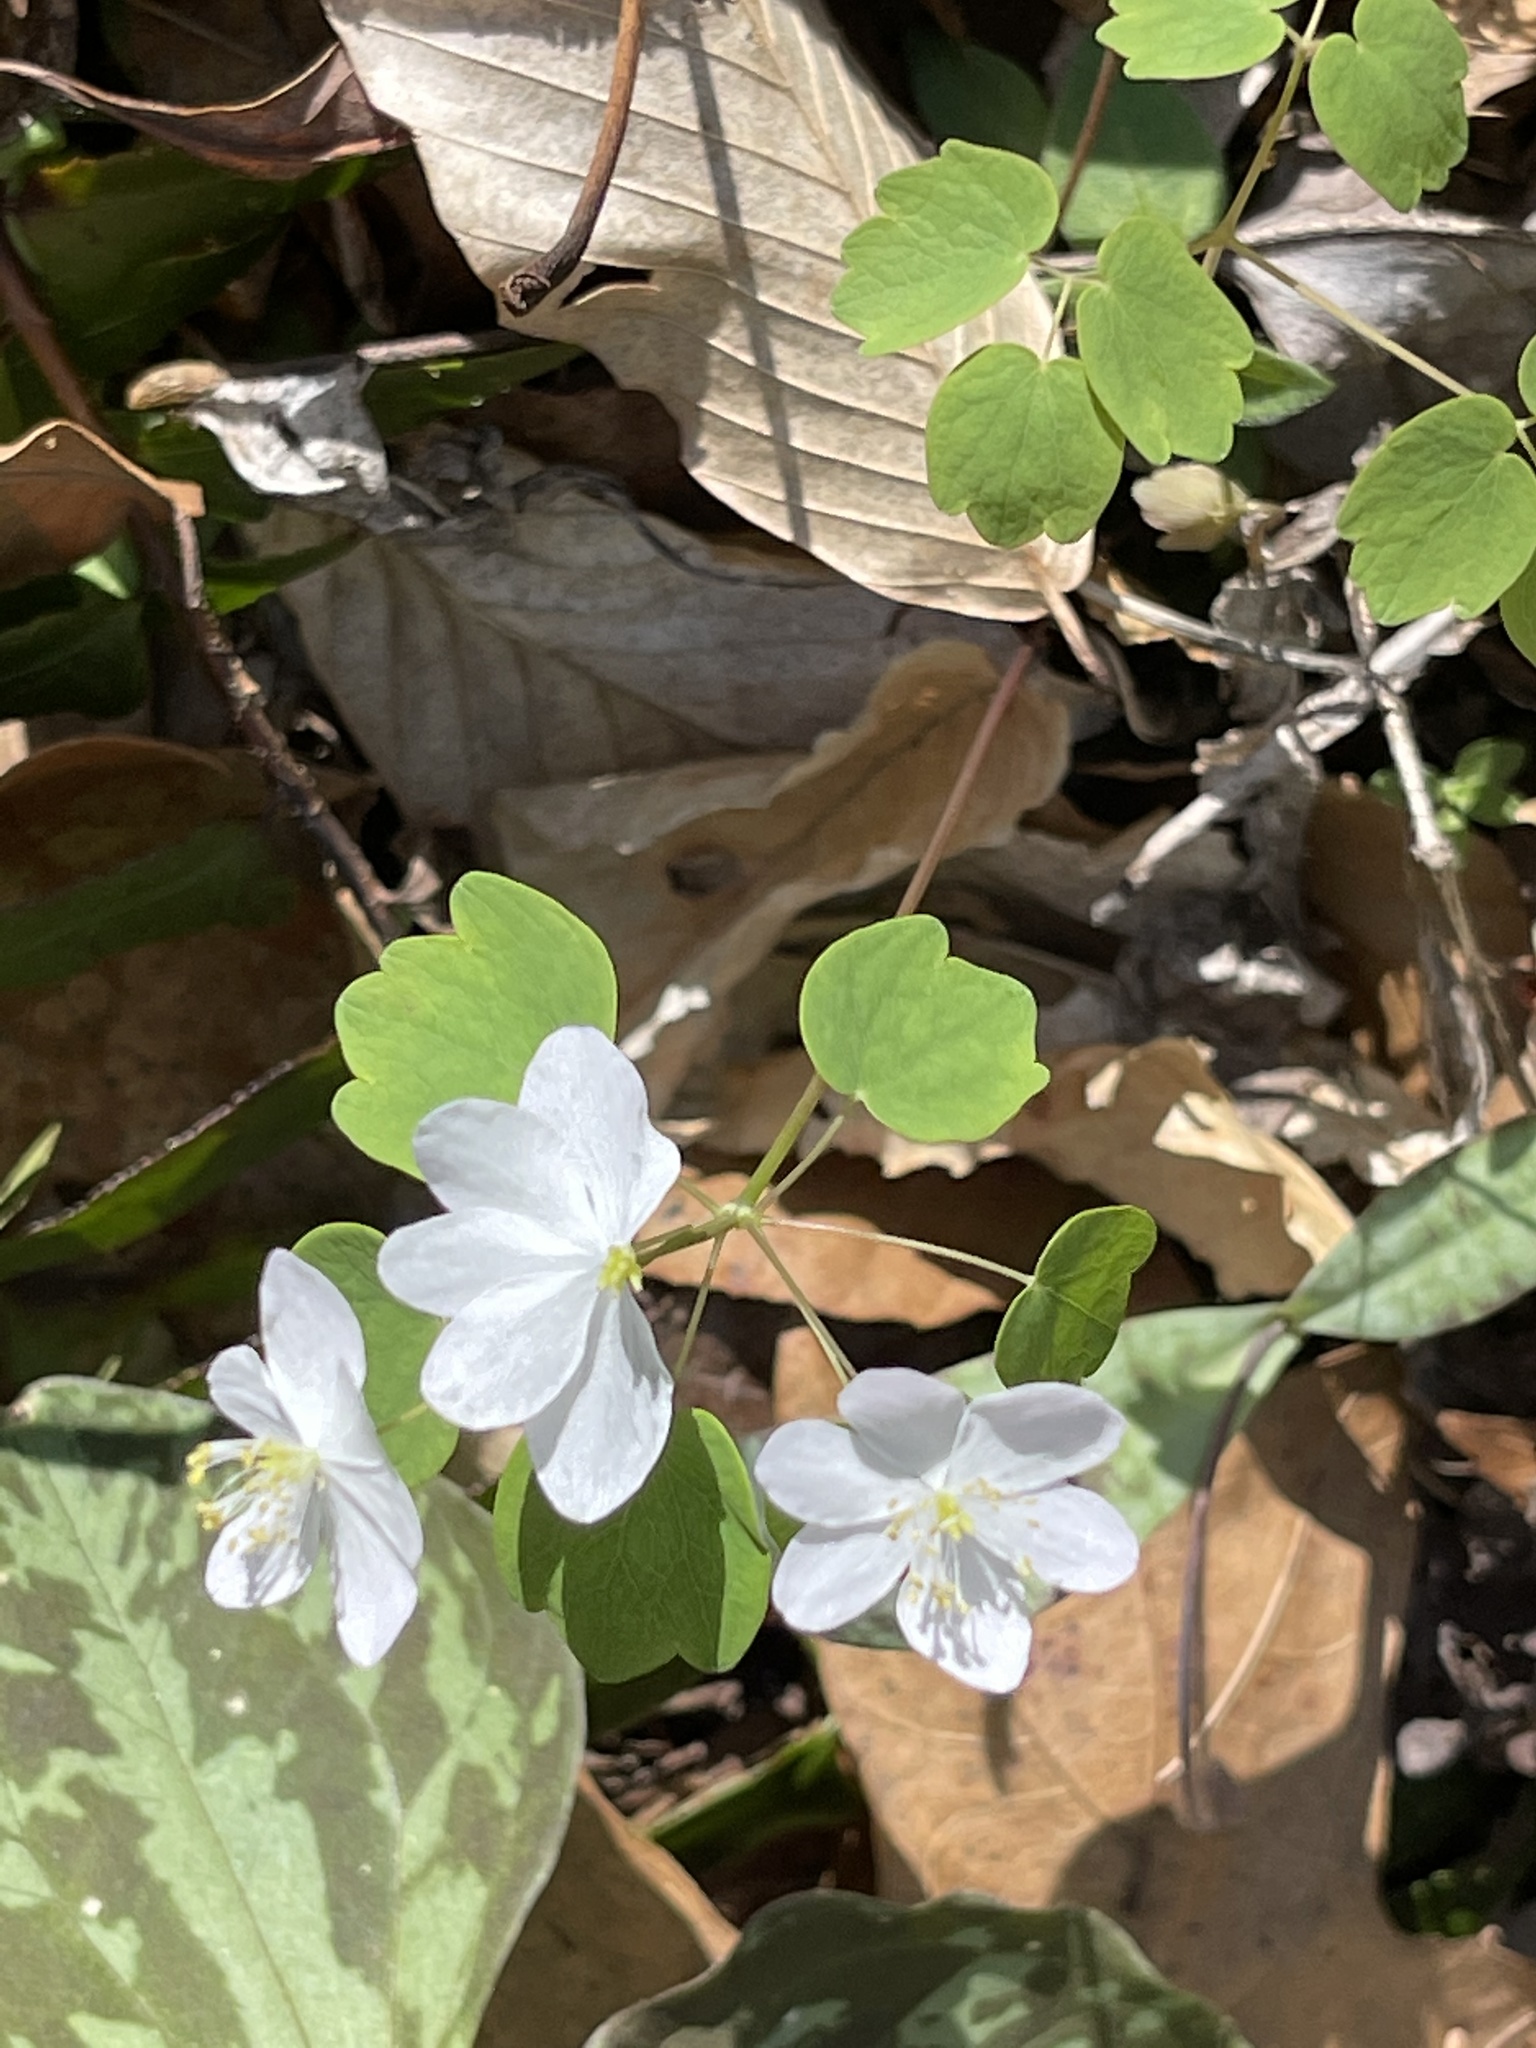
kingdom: Plantae
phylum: Tracheophyta
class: Magnoliopsida
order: Ranunculales
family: Ranunculaceae
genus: Thalictrum
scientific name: Thalictrum thalictroides
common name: Rue-anemone
